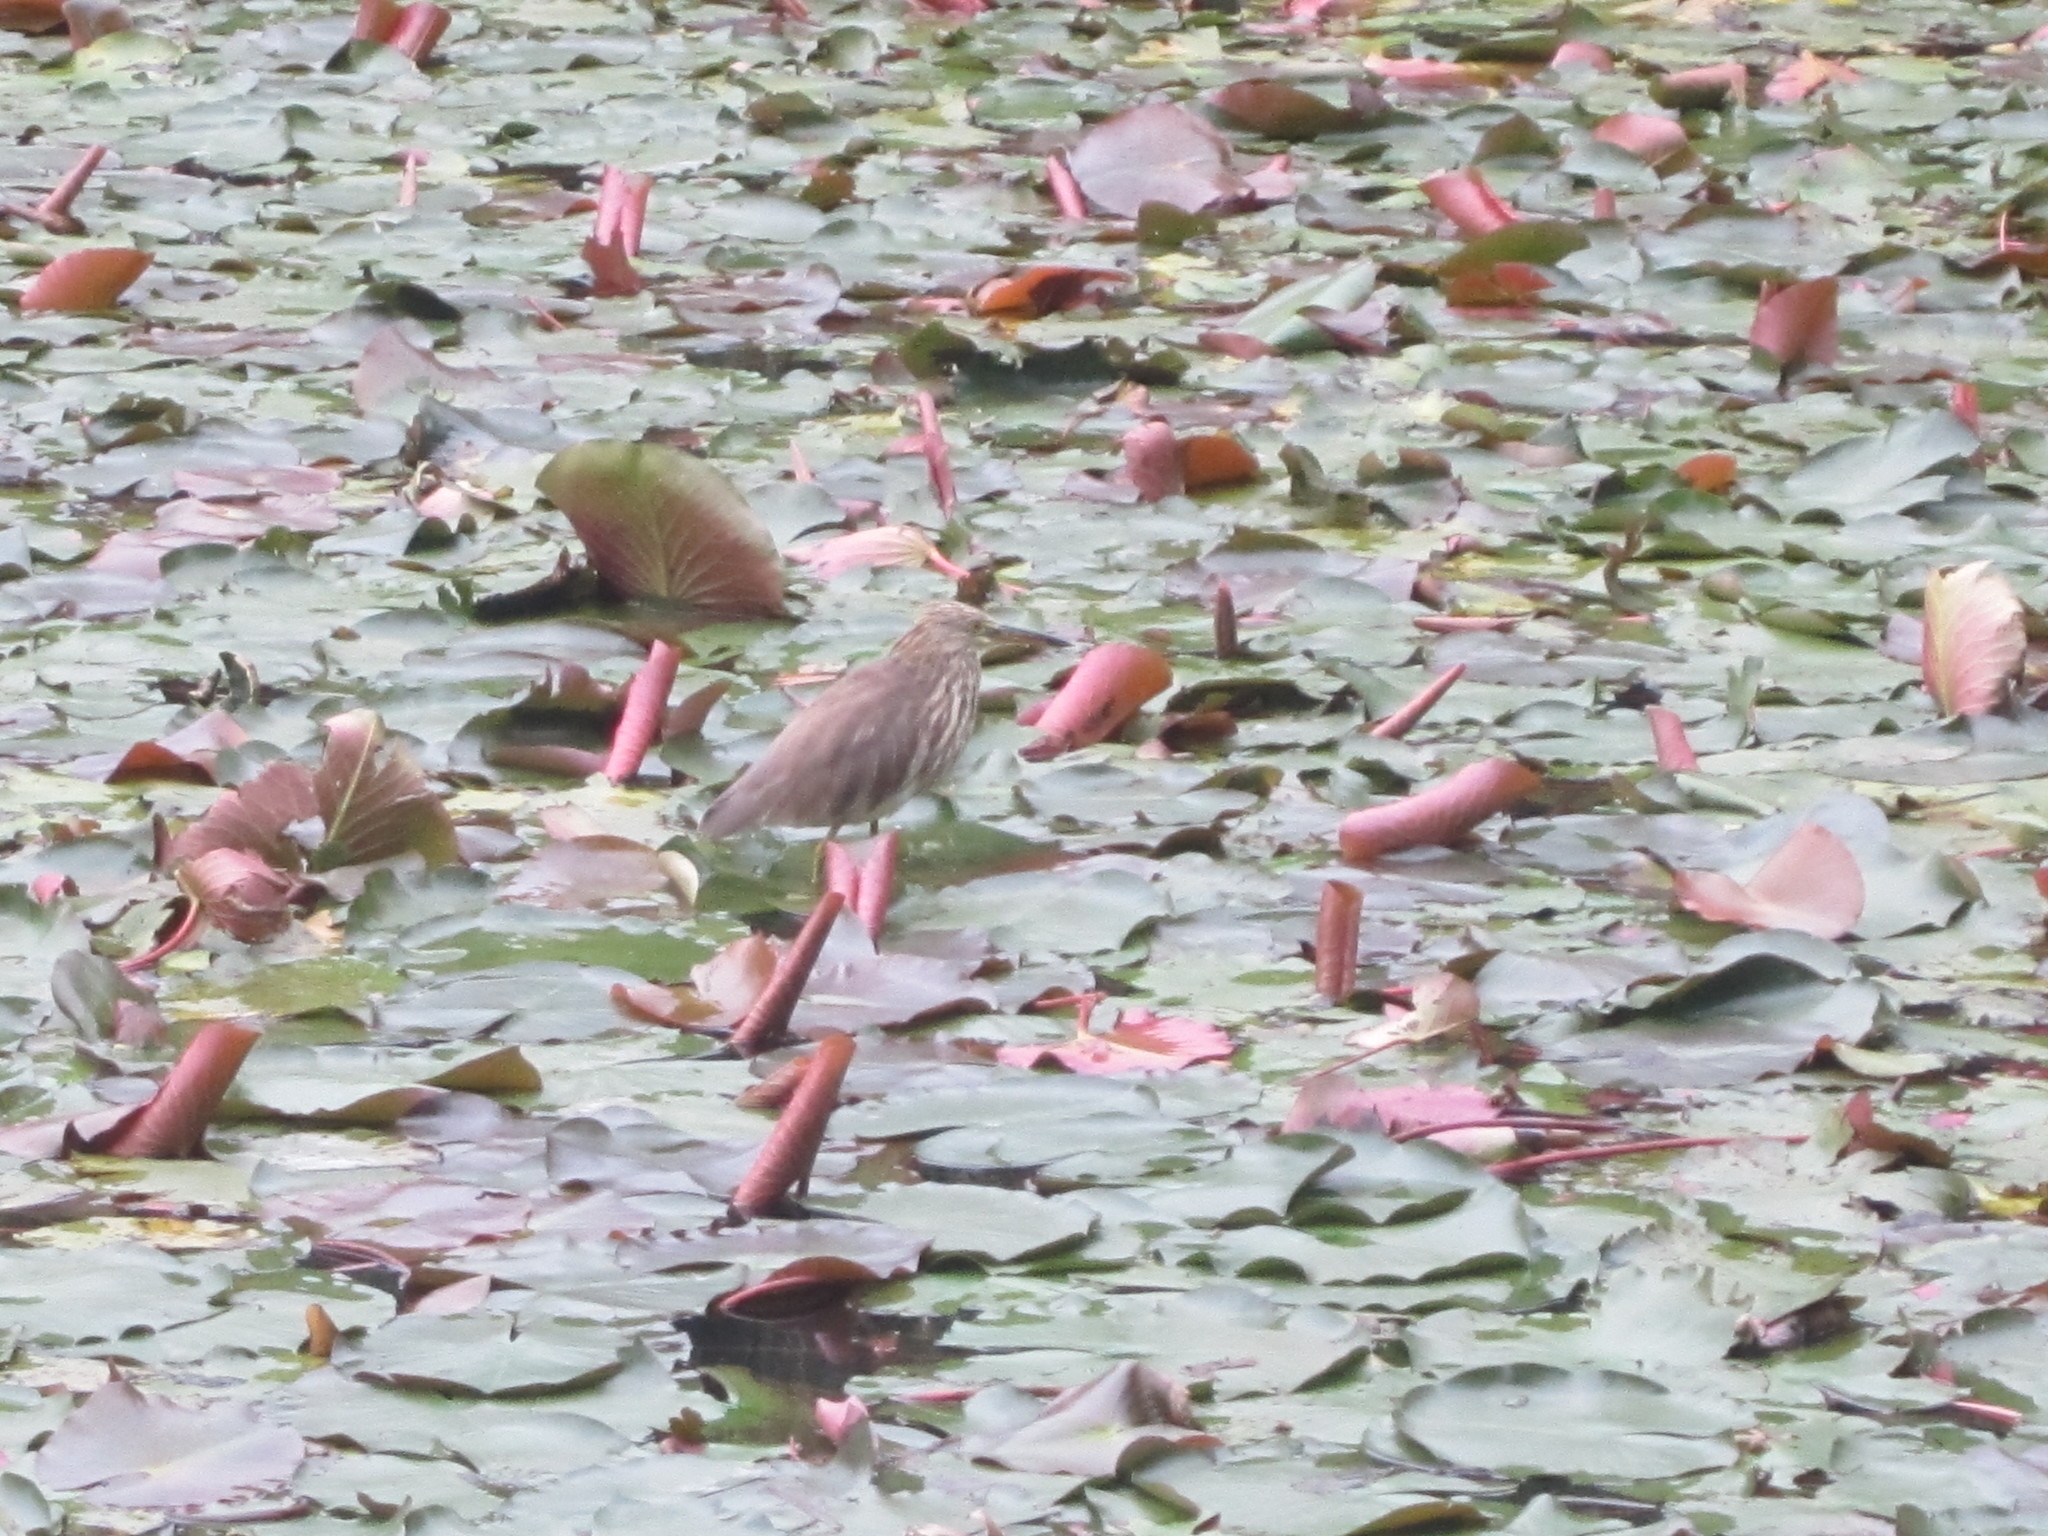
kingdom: Animalia
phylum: Chordata
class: Aves
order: Pelecaniformes
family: Ardeidae
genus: Ardeola
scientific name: Ardeola bacchus
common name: Chinese pond heron
